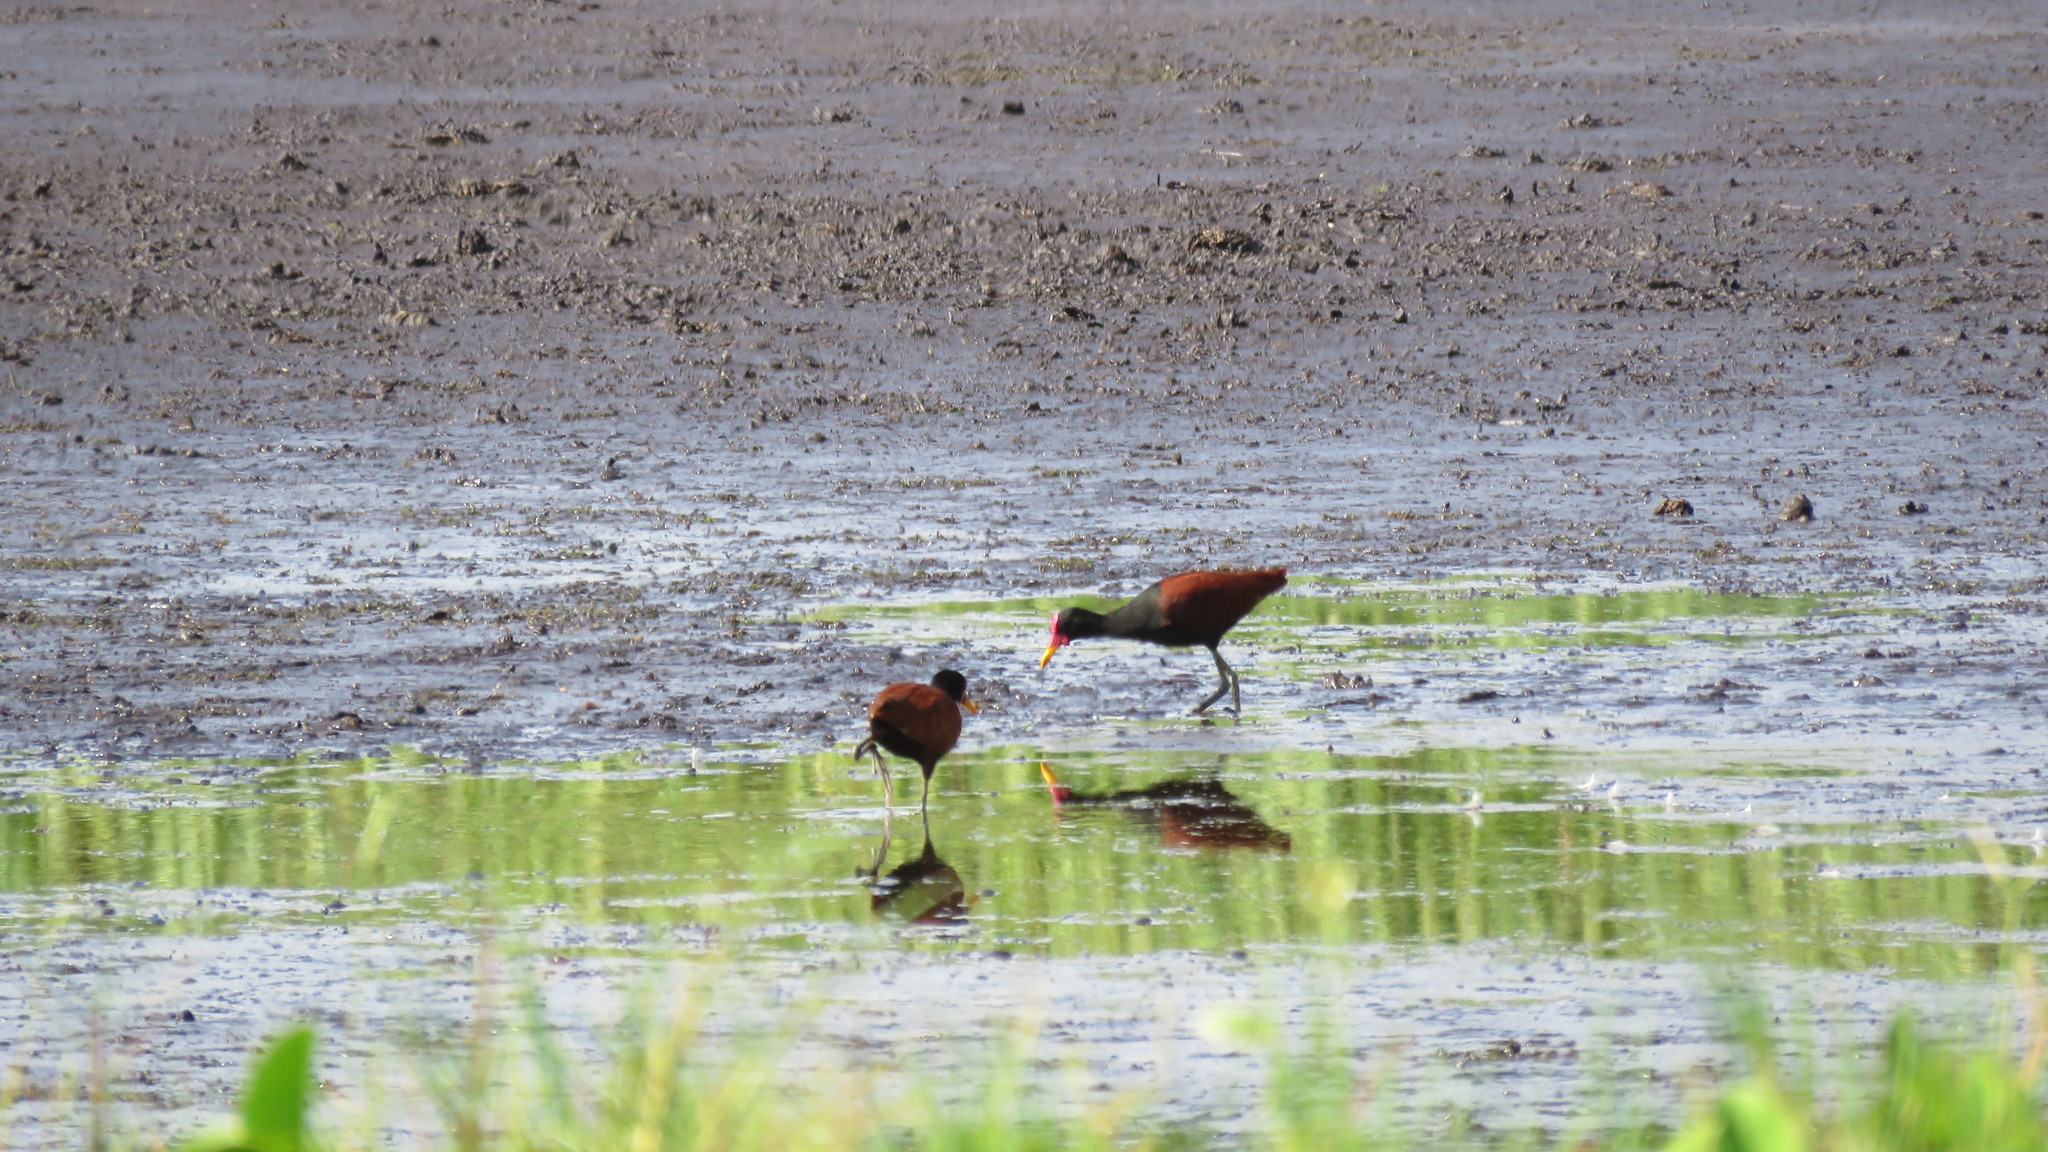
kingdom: Animalia
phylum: Chordata
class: Aves
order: Charadriiformes
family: Jacanidae
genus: Jacana
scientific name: Jacana jacana
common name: Wattled jacana
